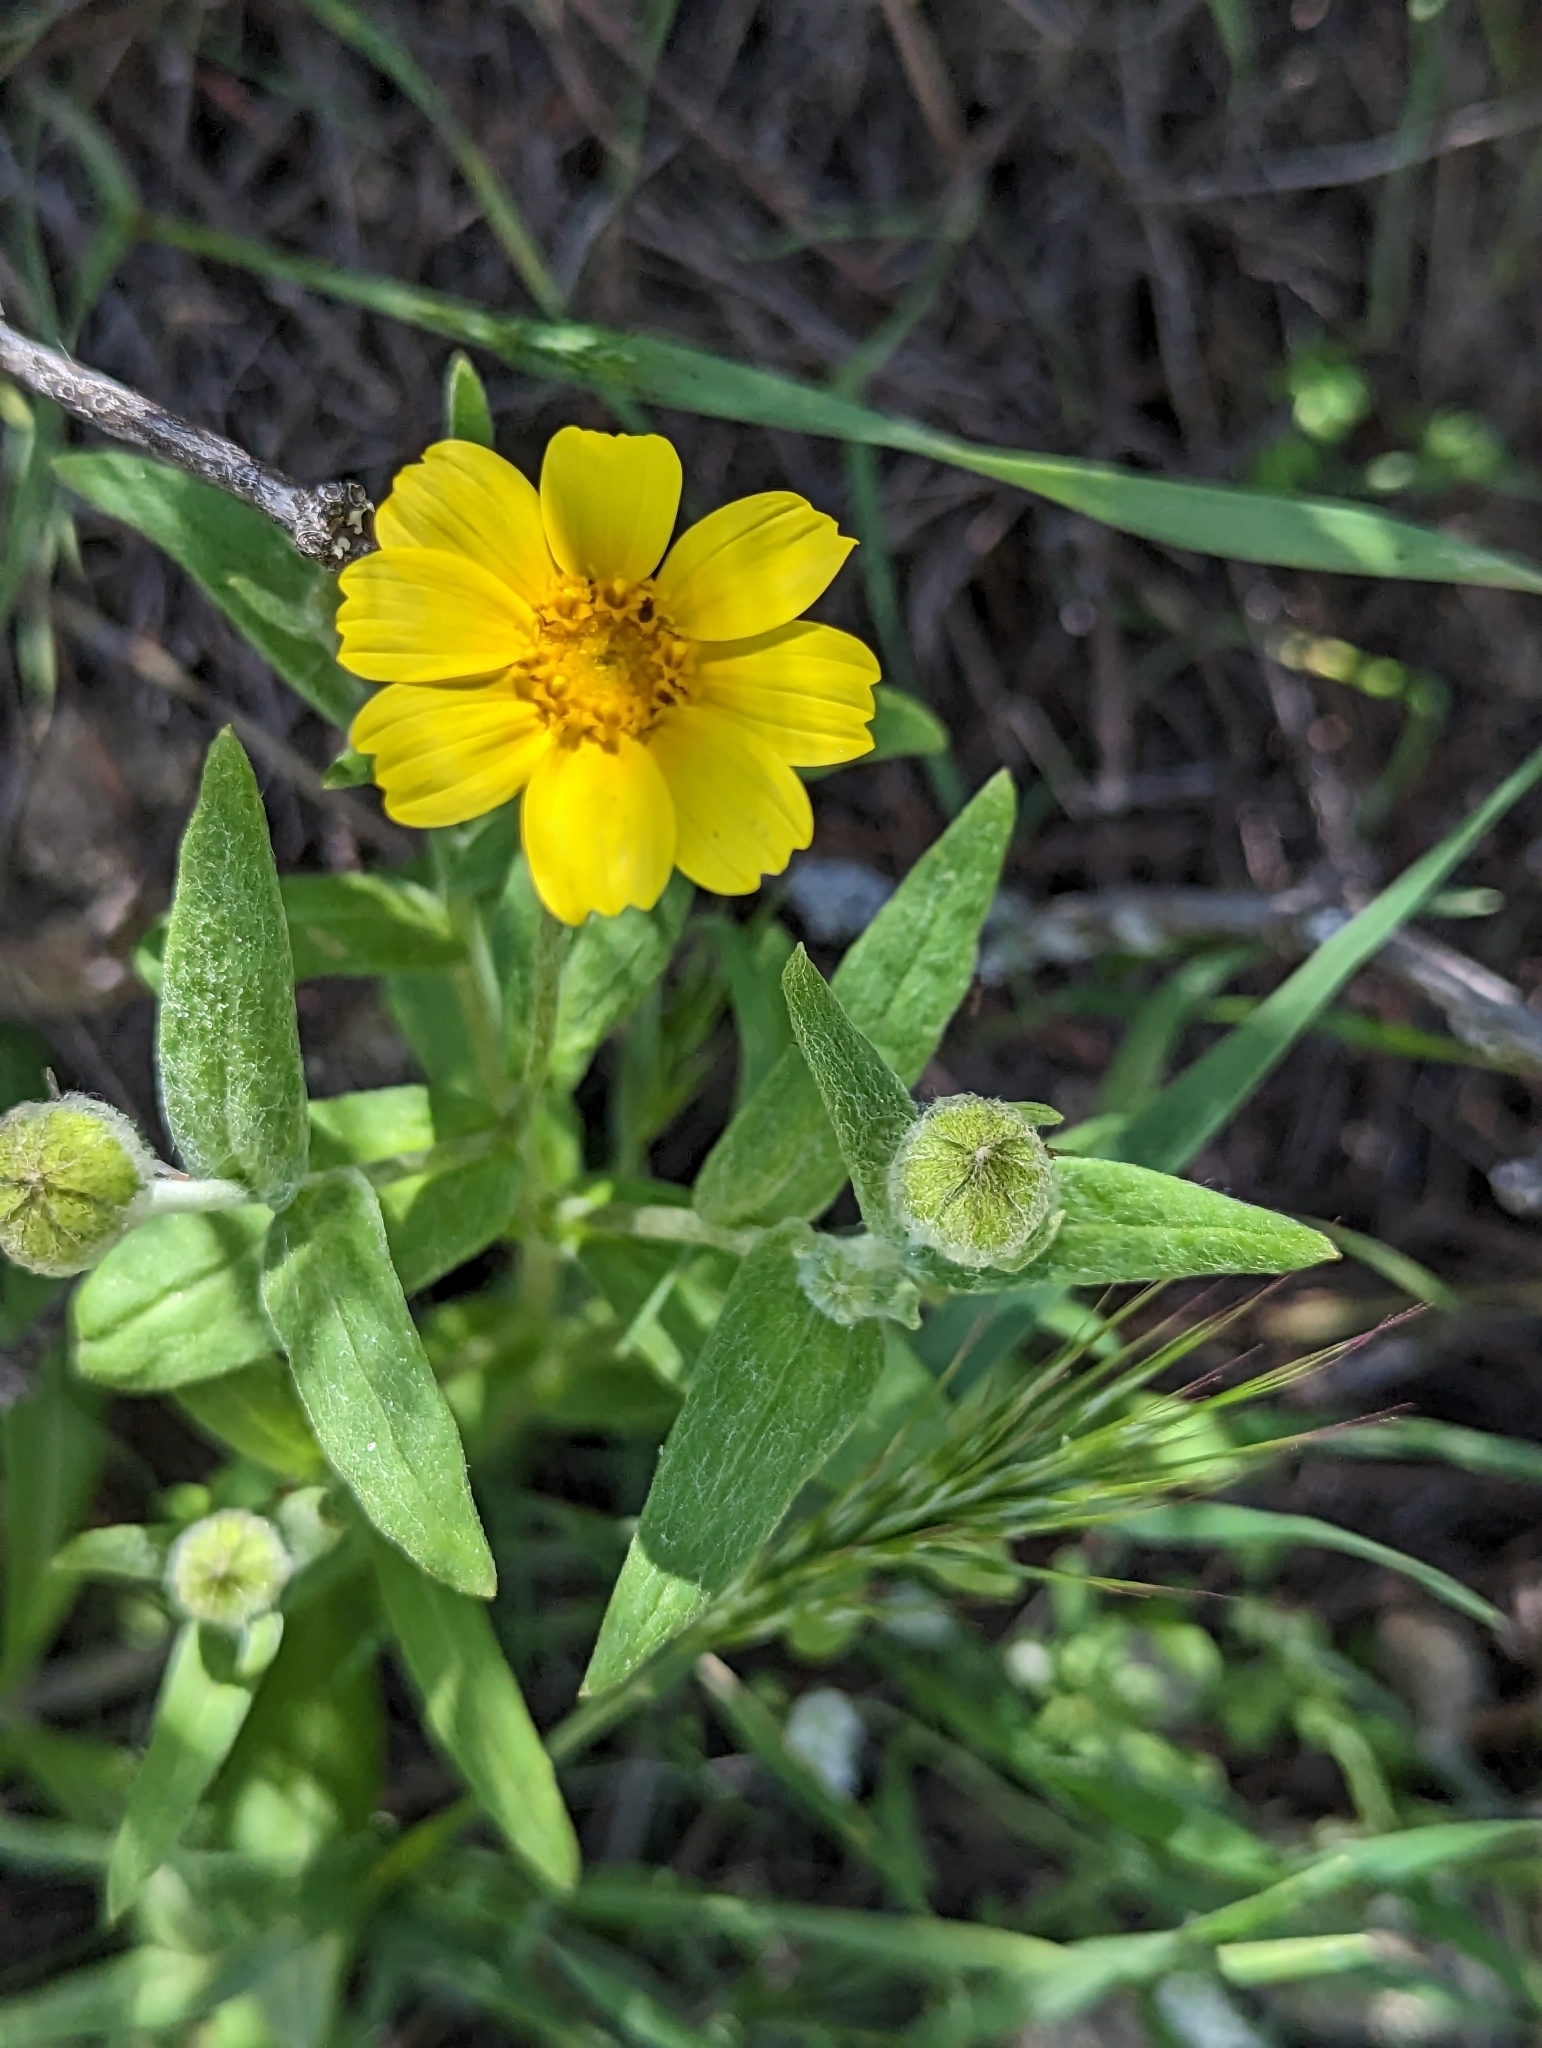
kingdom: Plantae
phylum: Tracheophyta
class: Magnoliopsida
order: Asterales
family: Asteraceae
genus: Monolopia
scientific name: Monolopia lanceolata
